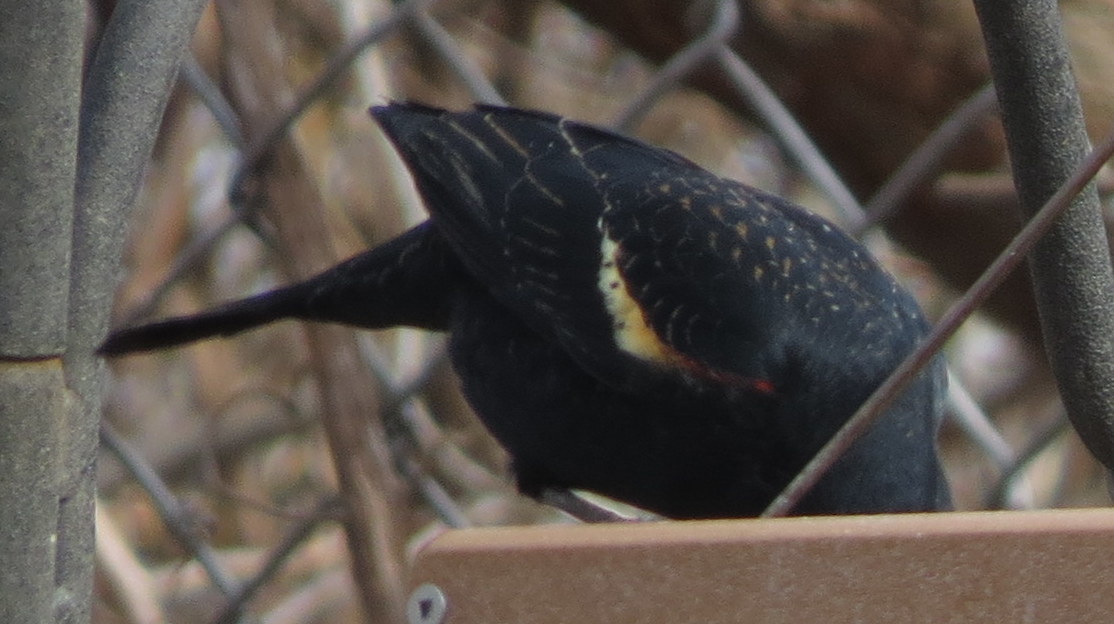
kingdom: Animalia
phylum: Chordata
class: Aves
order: Passeriformes
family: Icteridae
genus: Agelaius
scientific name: Agelaius phoeniceus
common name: Red-winged blackbird
